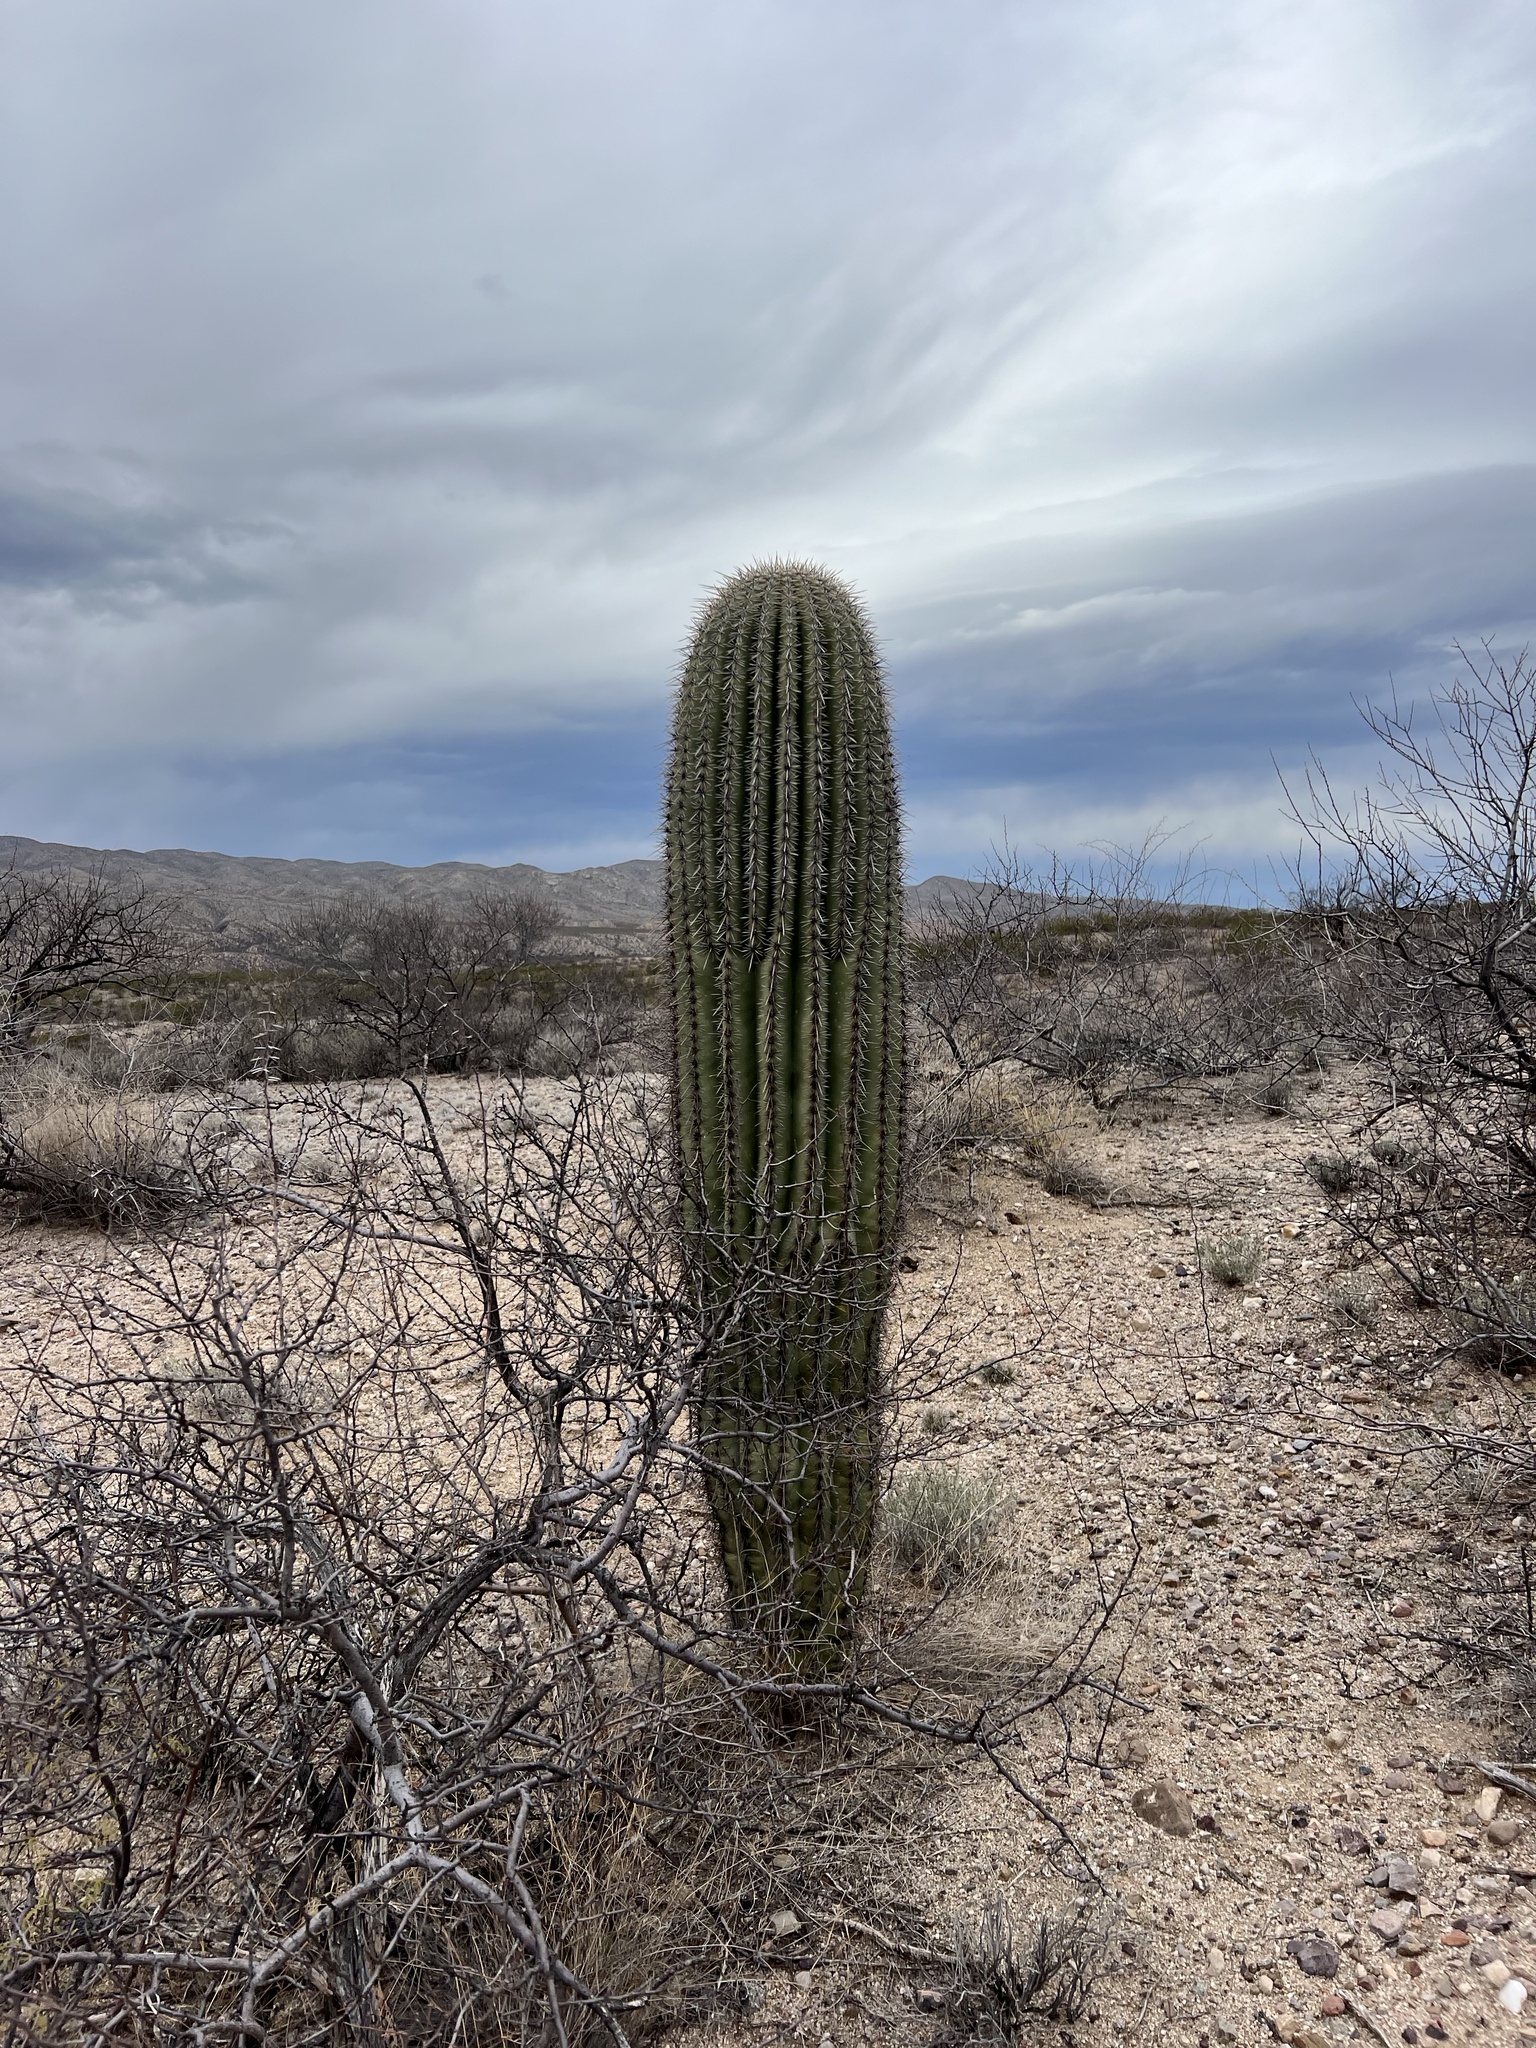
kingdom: Plantae
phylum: Tracheophyta
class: Magnoliopsida
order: Caryophyllales
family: Cactaceae
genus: Carnegiea
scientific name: Carnegiea gigantea
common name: Saguaro
